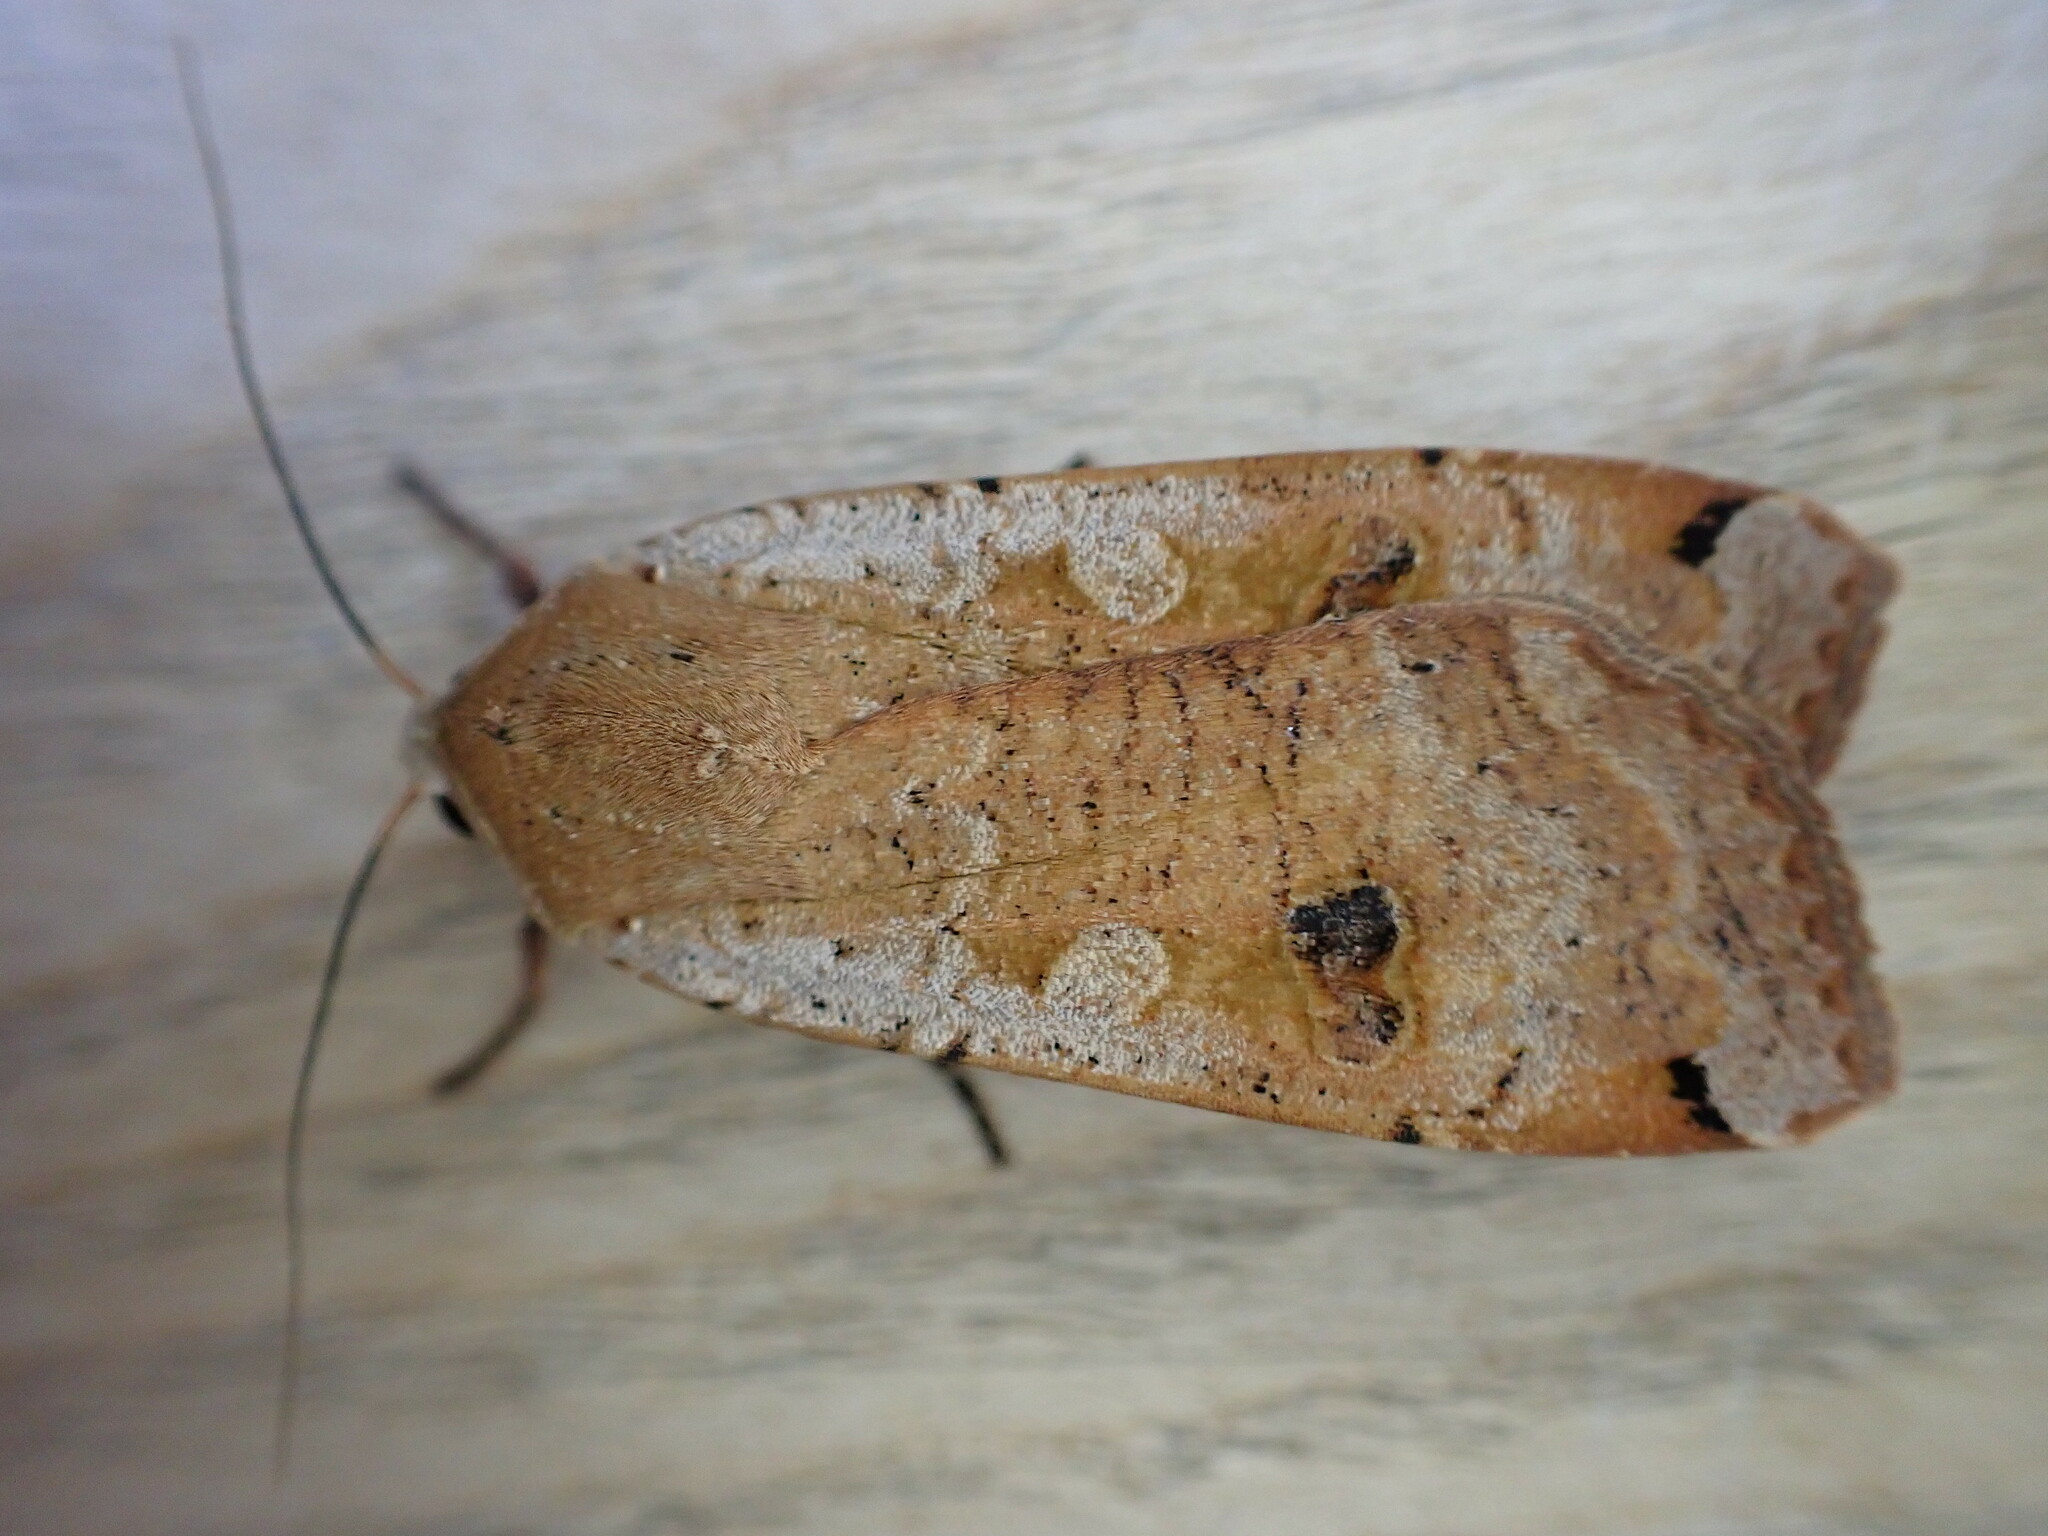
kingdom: Animalia
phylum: Arthropoda
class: Insecta
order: Lepidoptera
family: Noctuidae
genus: Noctua
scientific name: Noctua pronuba
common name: Large yellow underwing
